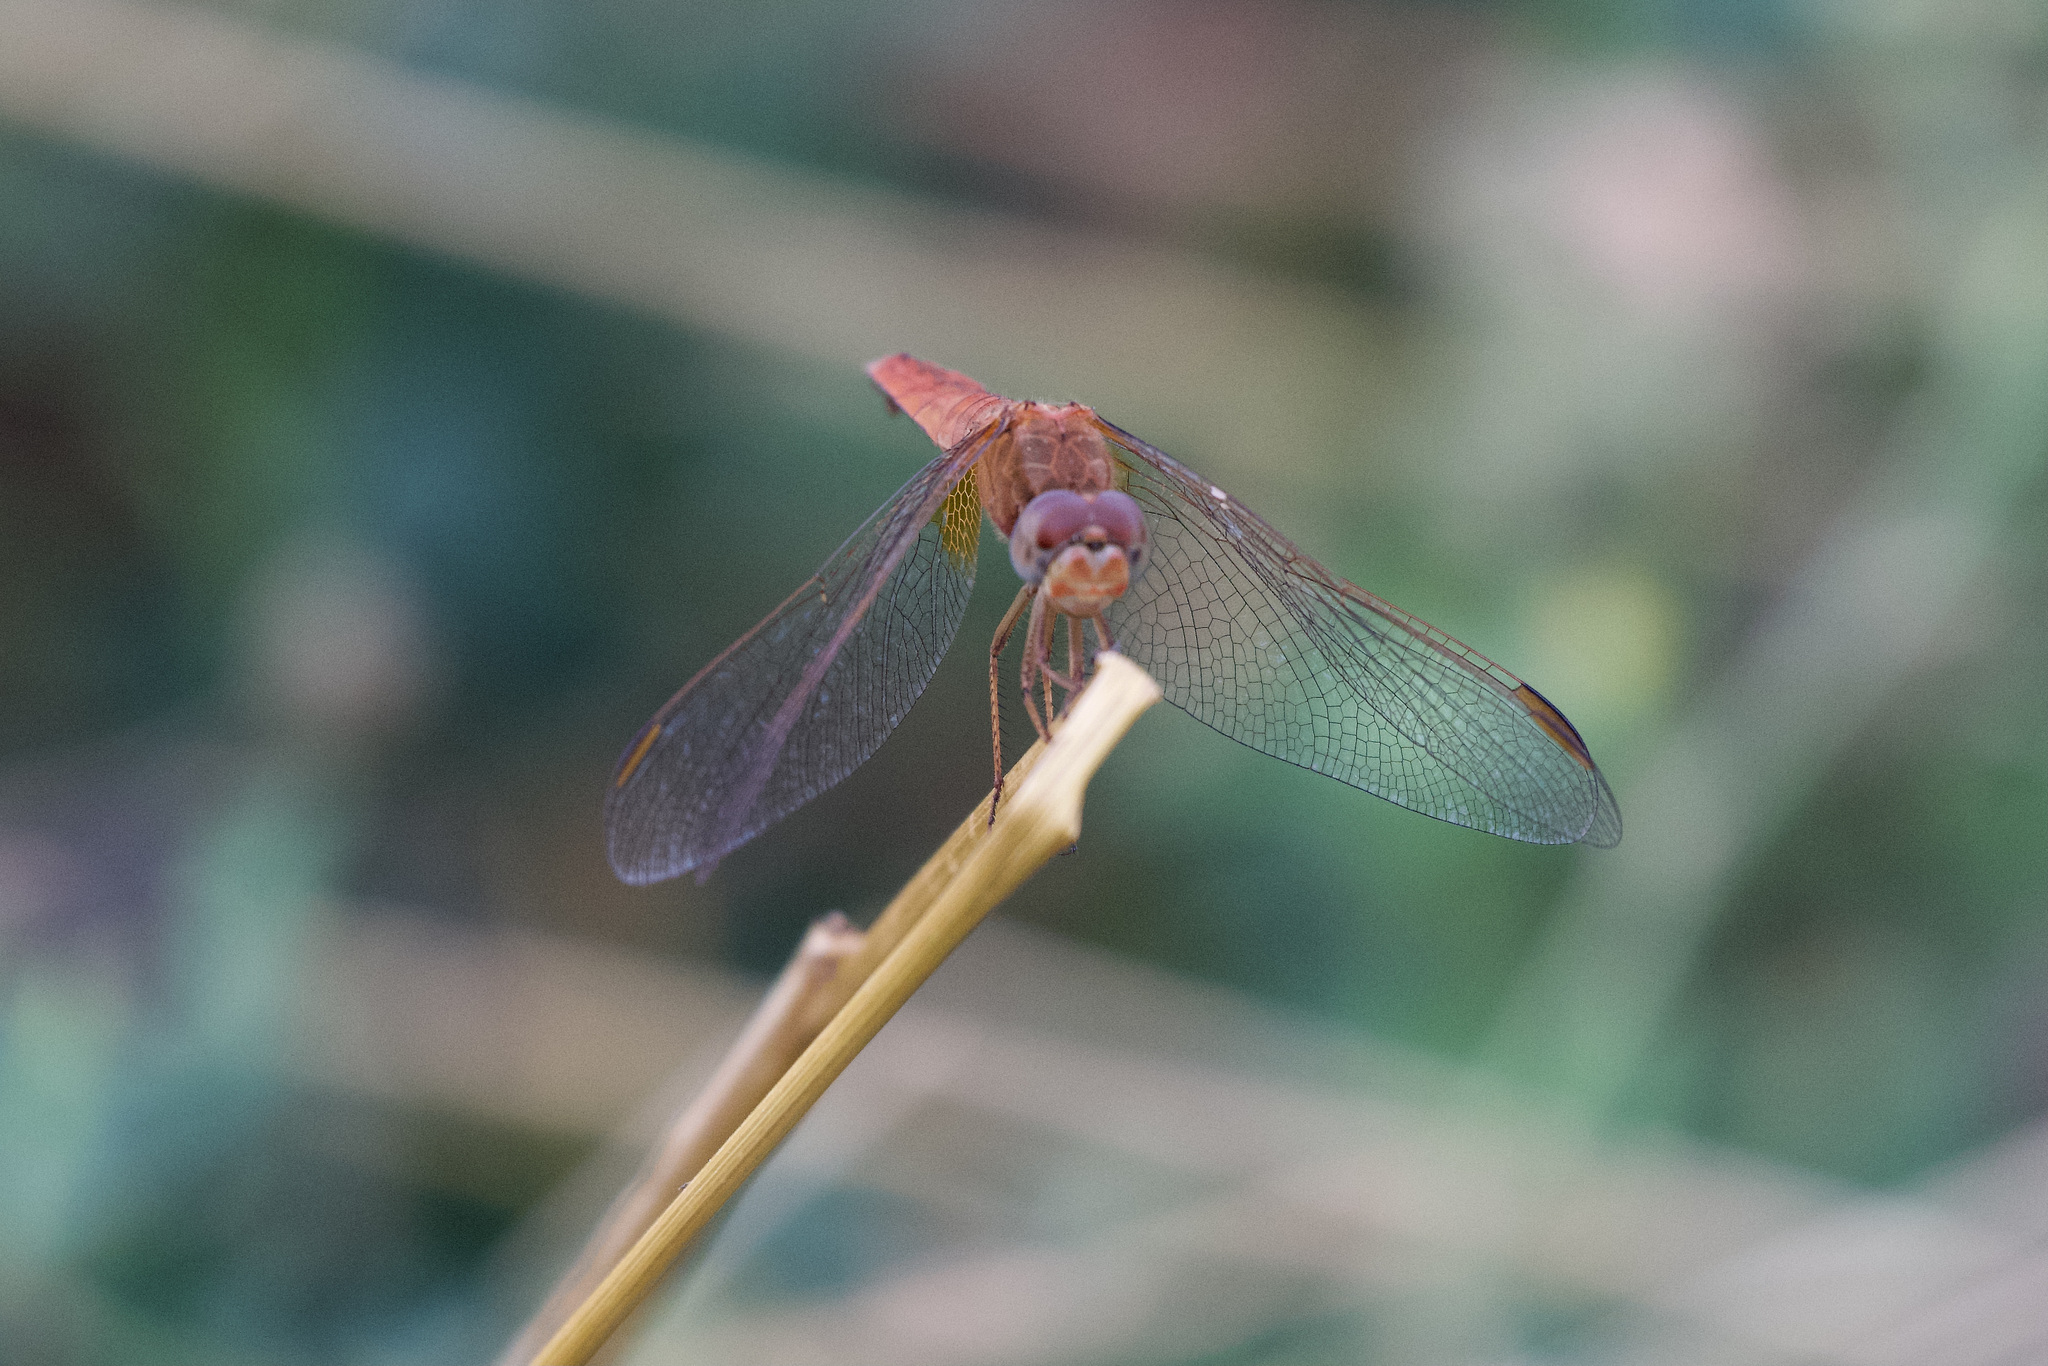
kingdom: Animalia
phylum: Arthropoda
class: Insecta
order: Odonata
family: Libellulidae
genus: Crocothemis
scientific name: Crocothemis erythraea
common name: Scarlet dragonfly
